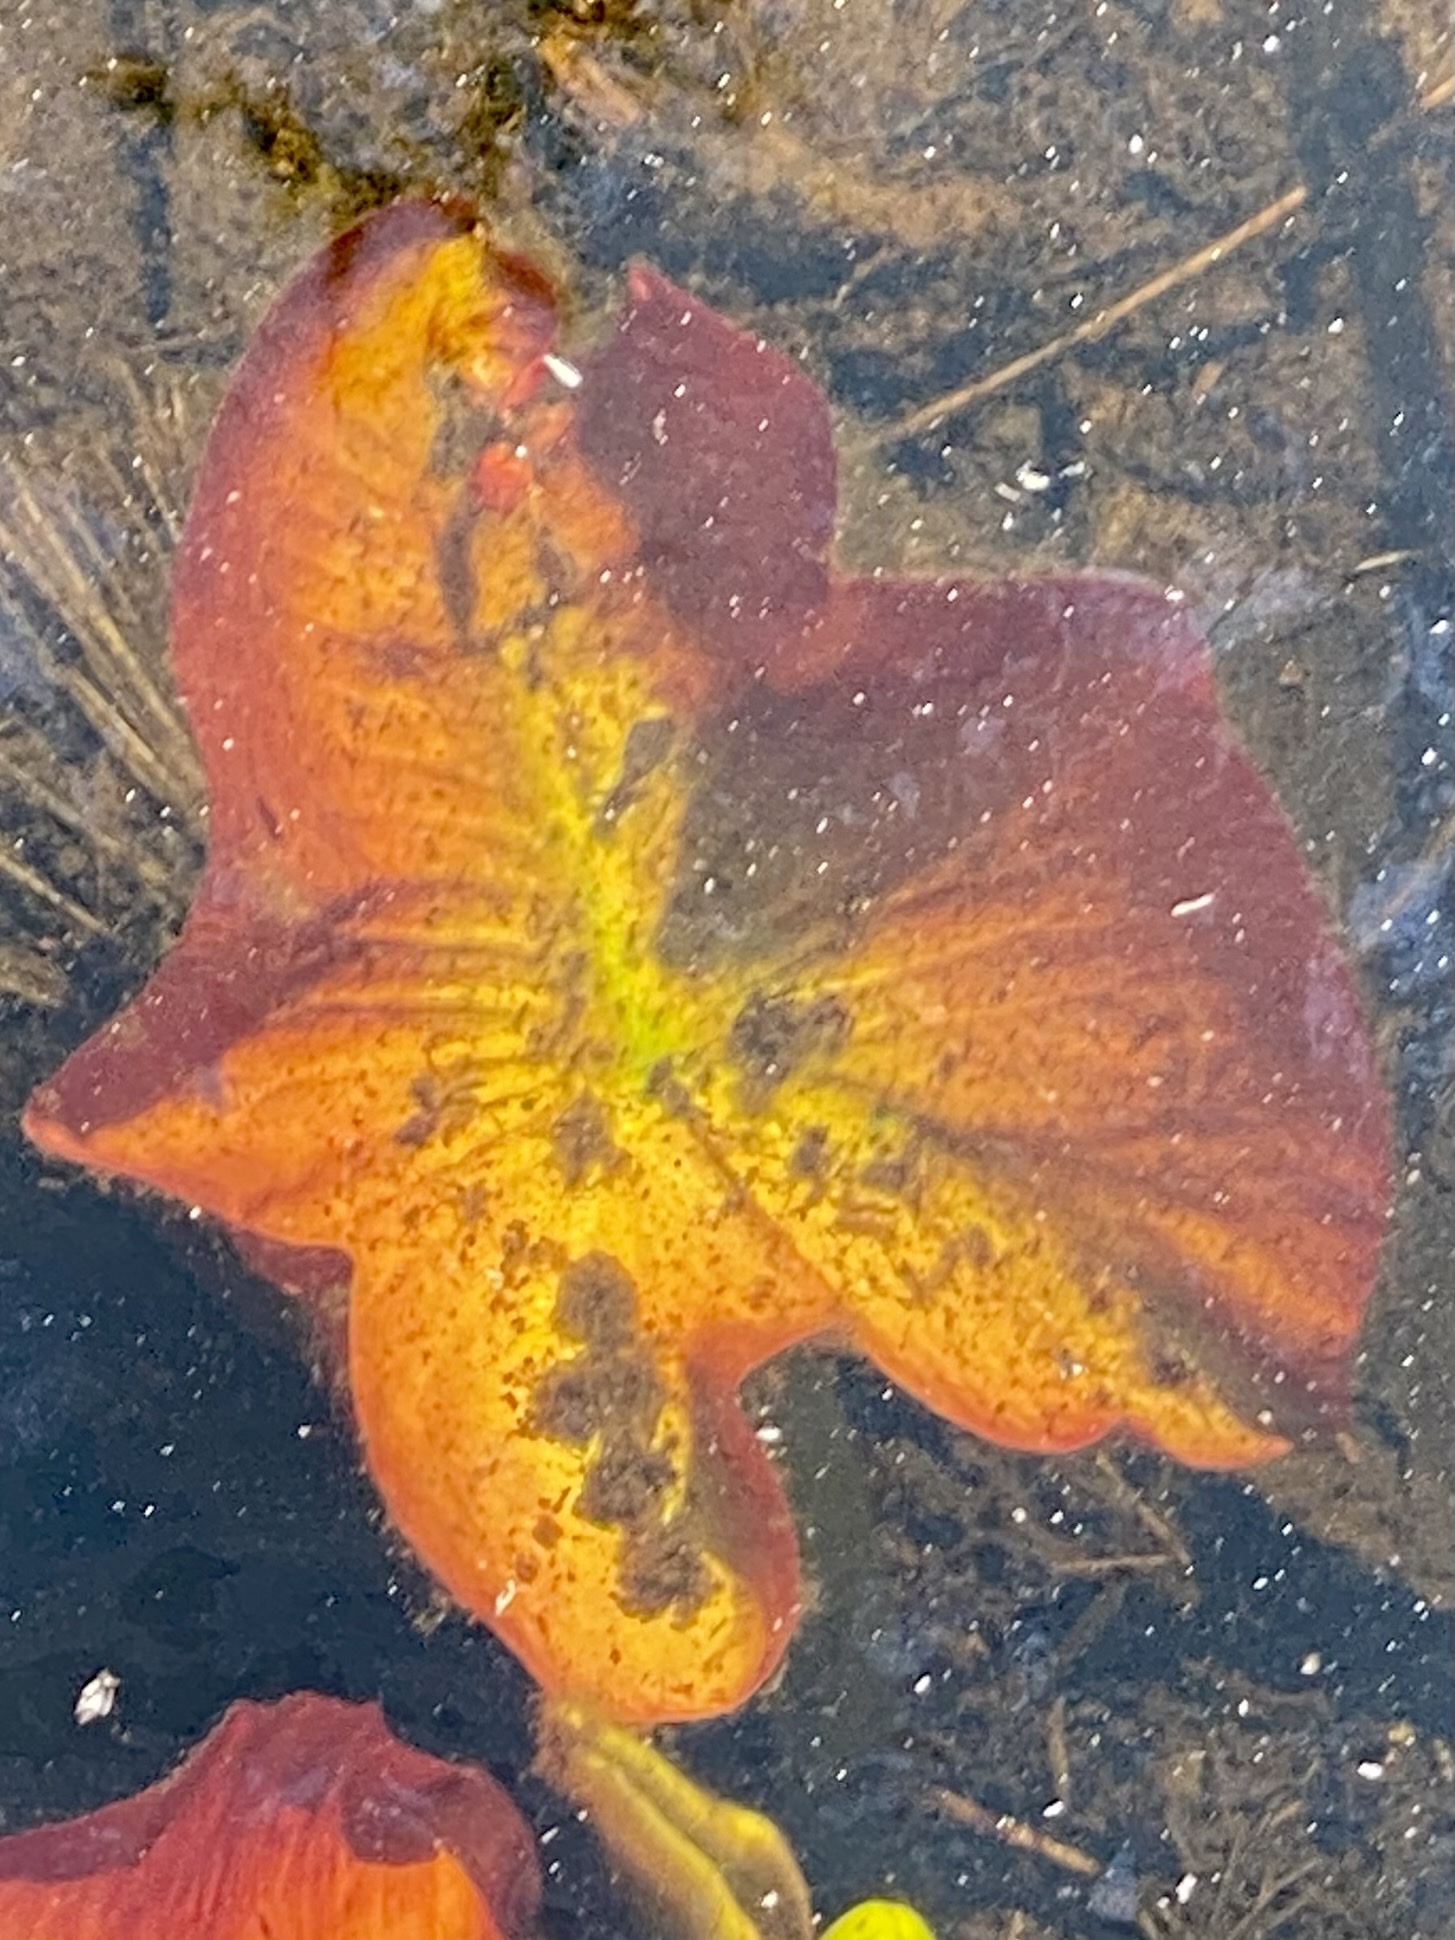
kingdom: Plantae
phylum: Tracheophyta
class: Magnoliopsida
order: Nymphaeales
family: Nymphaeaceae
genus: Nuphar
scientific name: Nuphar variegata
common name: Beaver-root
